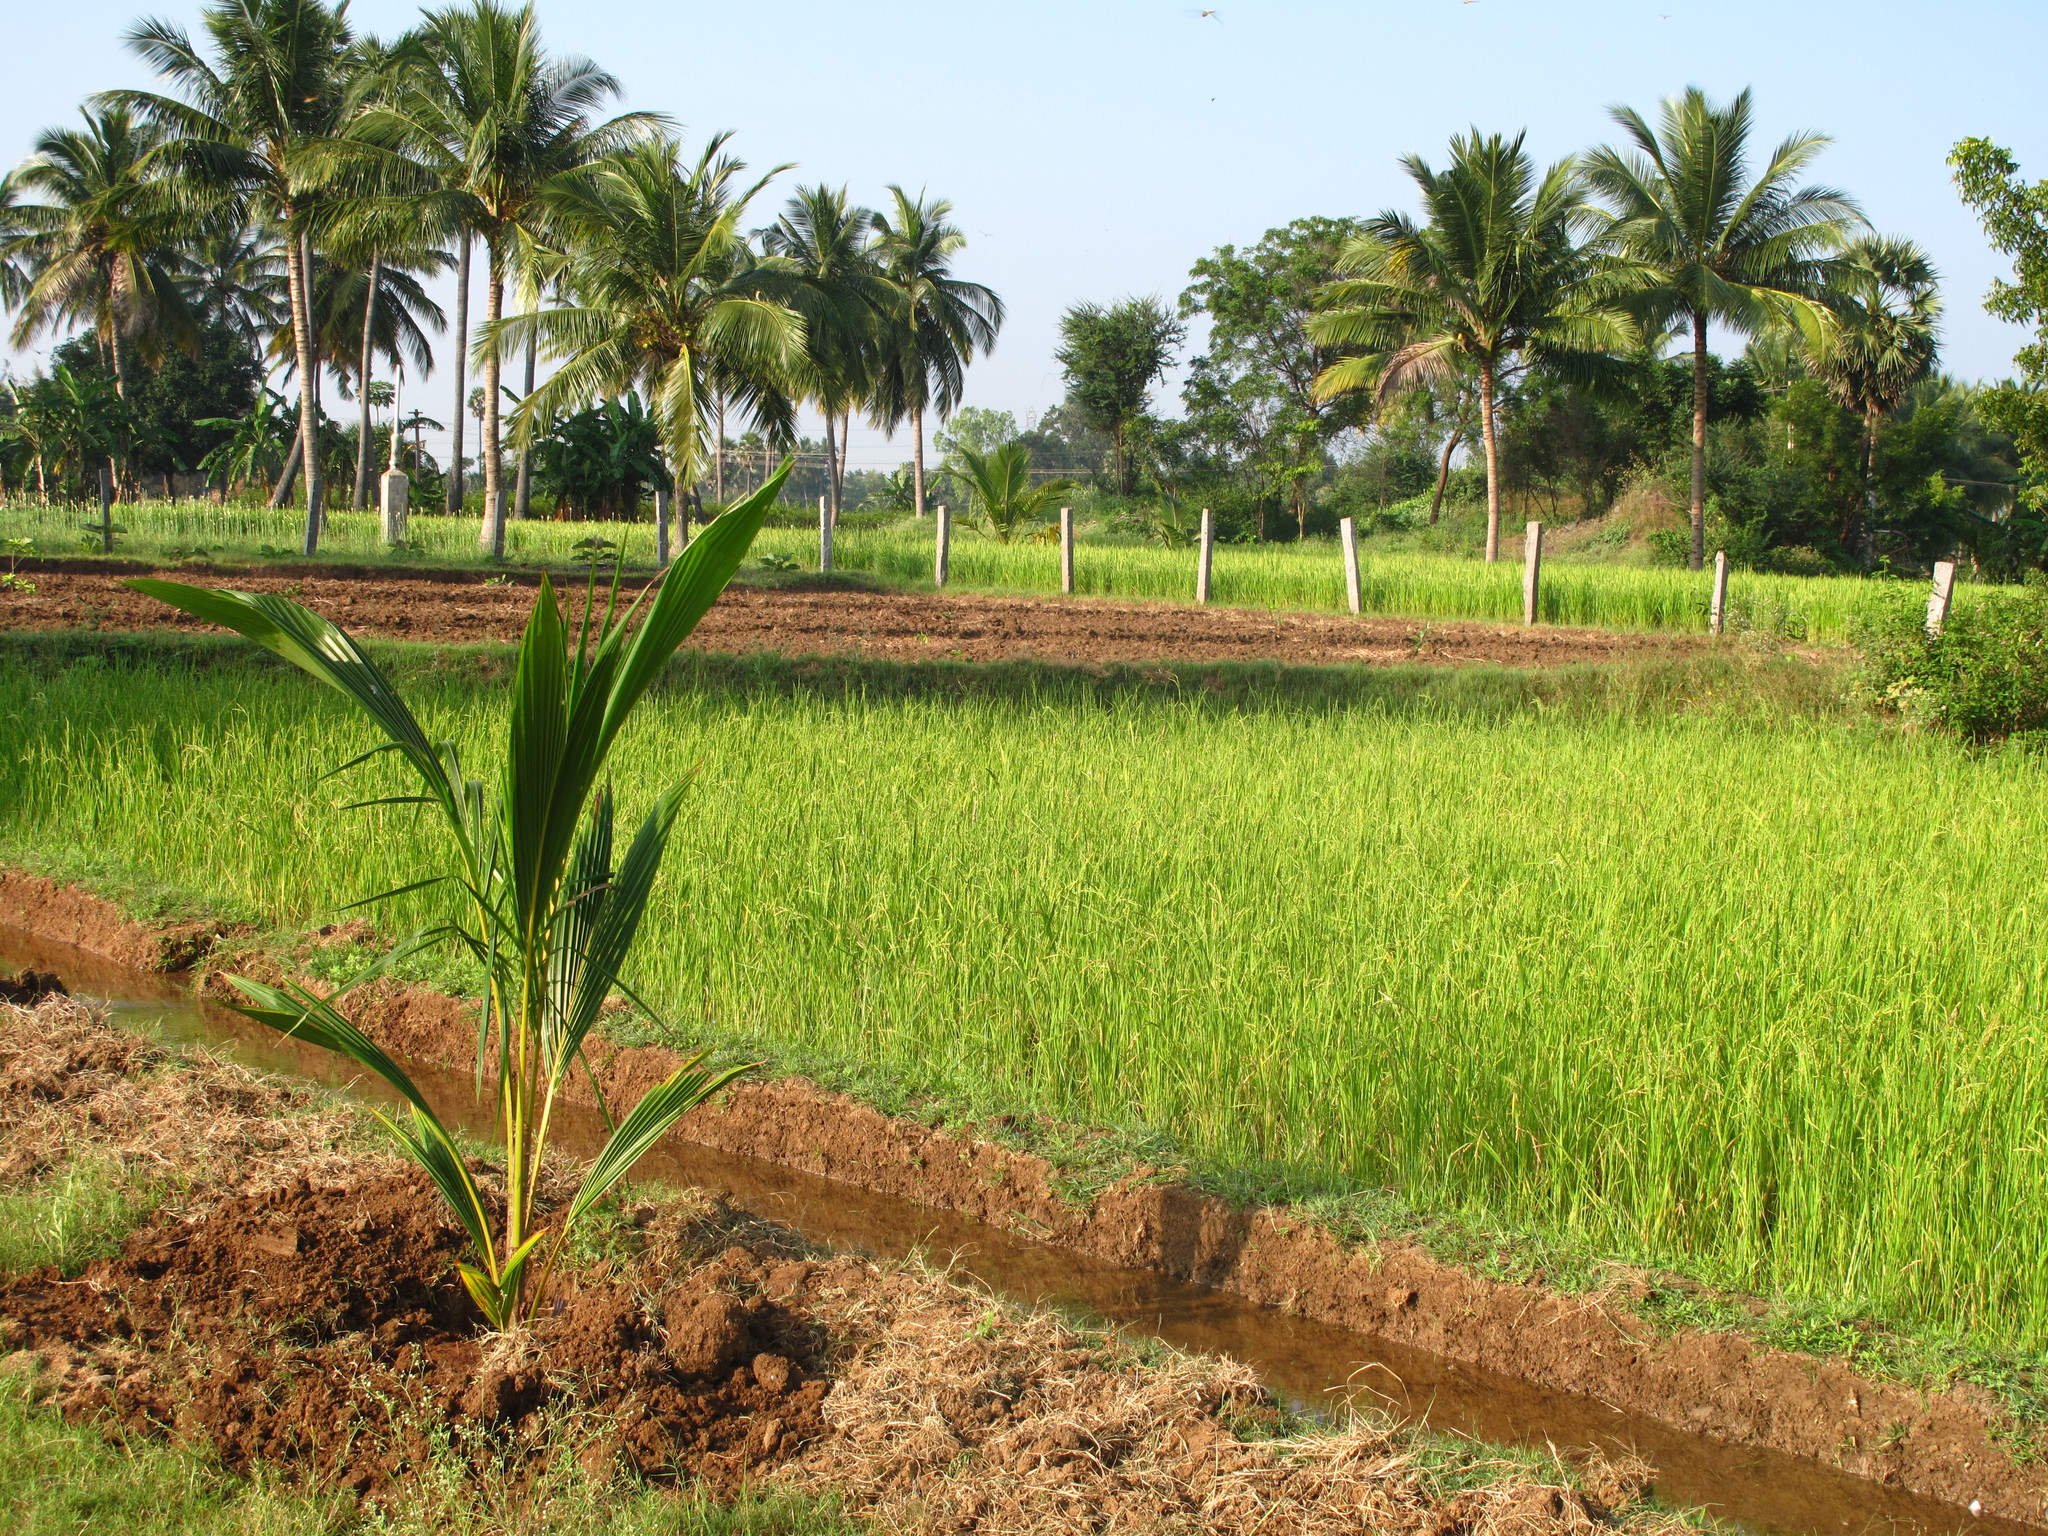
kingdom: Plantae
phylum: Tracheophyta
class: Liliopsida
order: Arecales
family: Arecaceae
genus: Cocos
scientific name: Cocos nucifera
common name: Coconut palm
